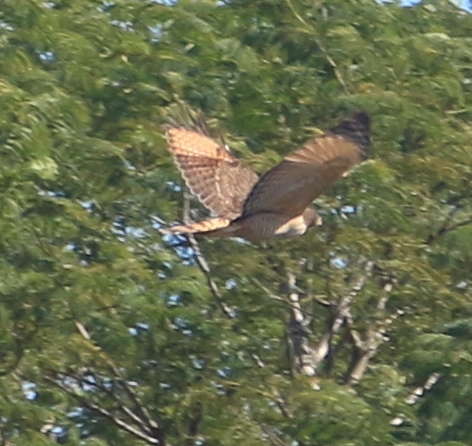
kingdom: Animalia
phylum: Chordata
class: Aves
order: Accipitriformes
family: Accipitridae
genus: Rupornis
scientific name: Rupornis magnirostris
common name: Roadside hawk
